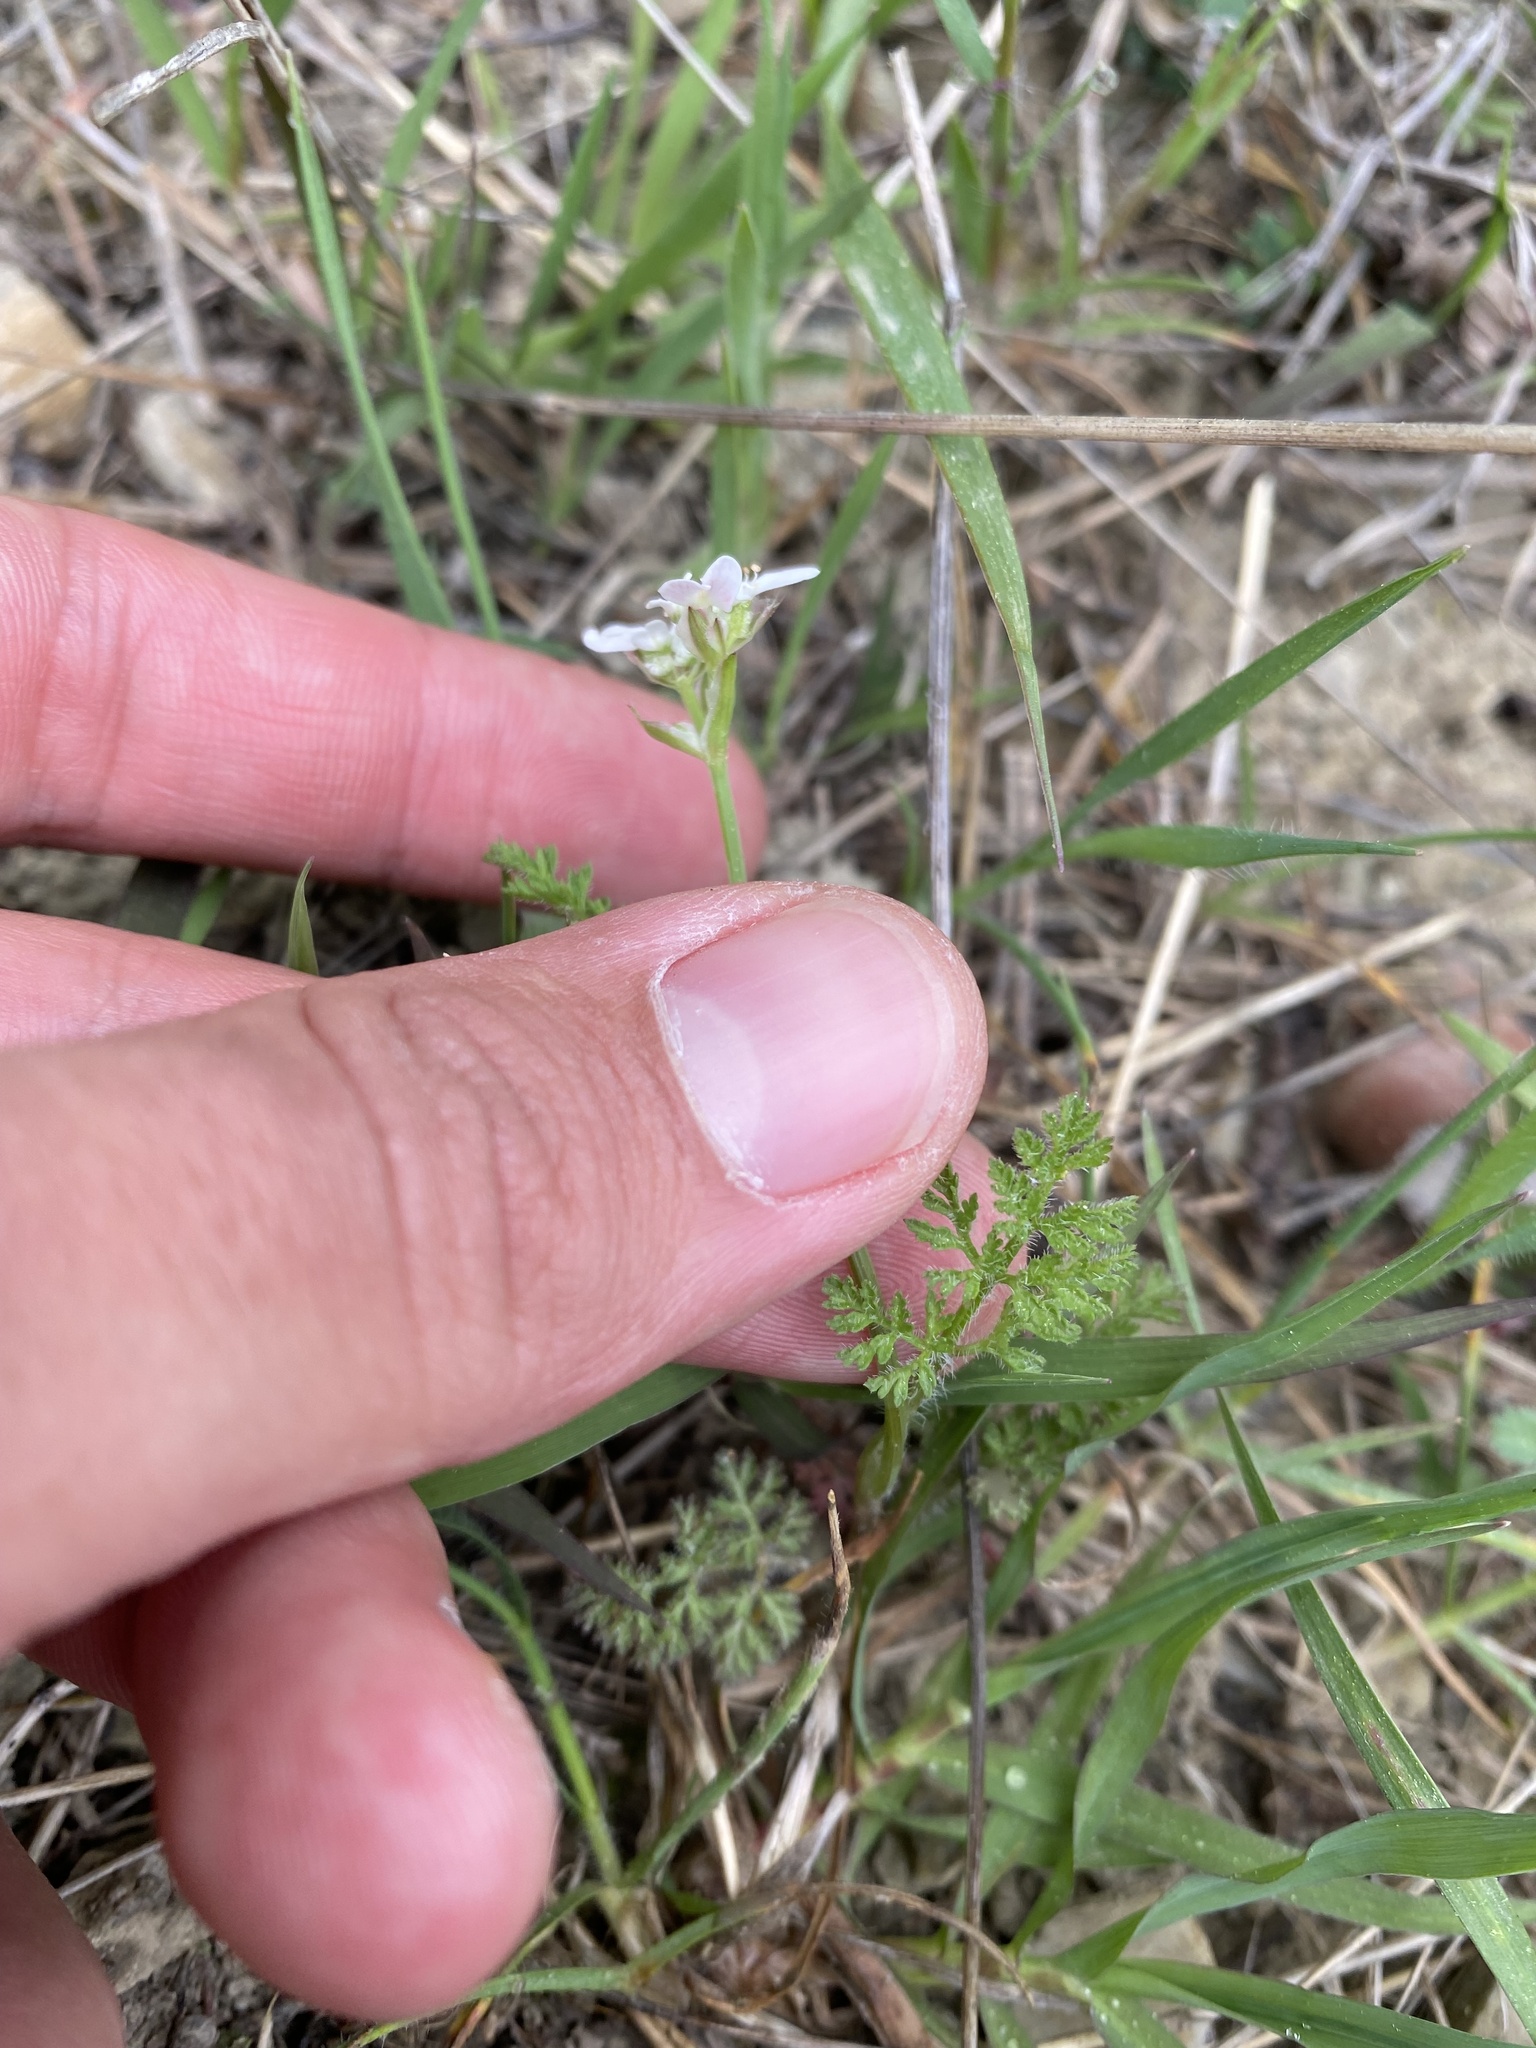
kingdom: Plantae
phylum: Tracheophyta
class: Magnoliopsida
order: Apiales
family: Apiaceae
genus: Orlaya
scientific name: Orlaya daucoides
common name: Flat-fruit orlaya
